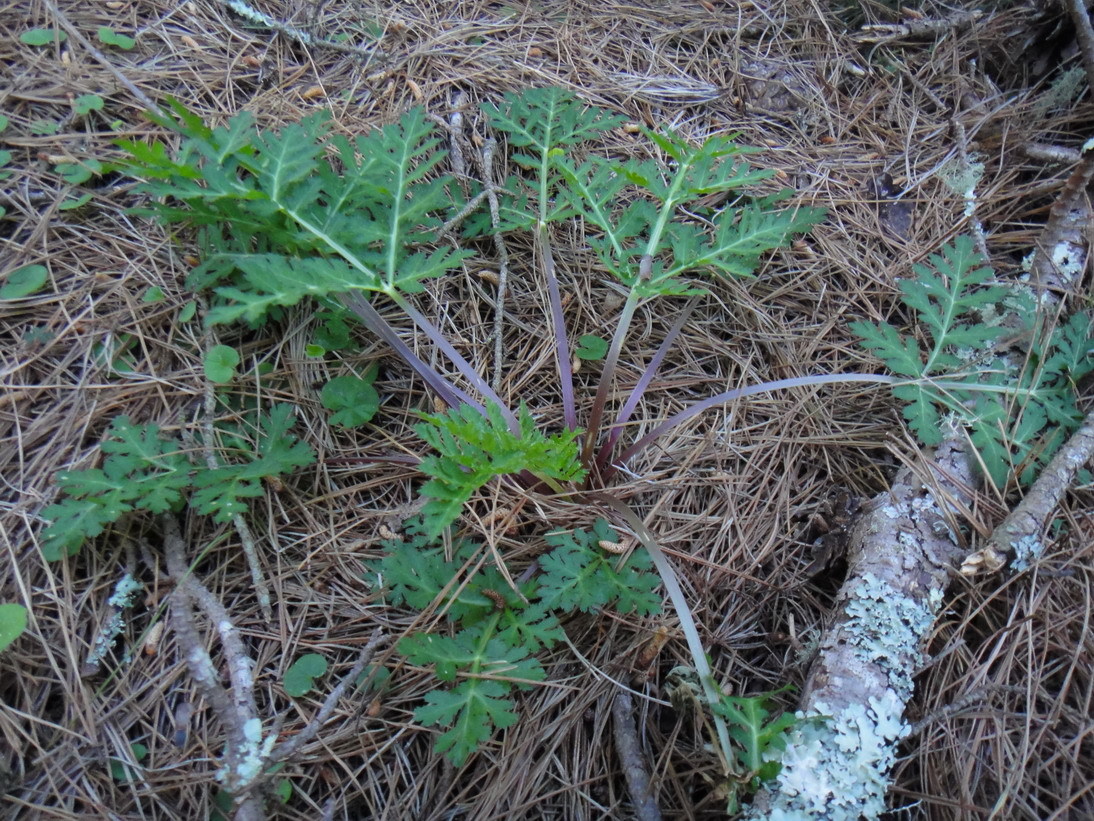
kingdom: Plantae
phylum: Tracheophyta
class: Magnoliopsida
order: Apiales
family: Apiaceae
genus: Lichtensteinia
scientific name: Lichtensteinia interrupta
